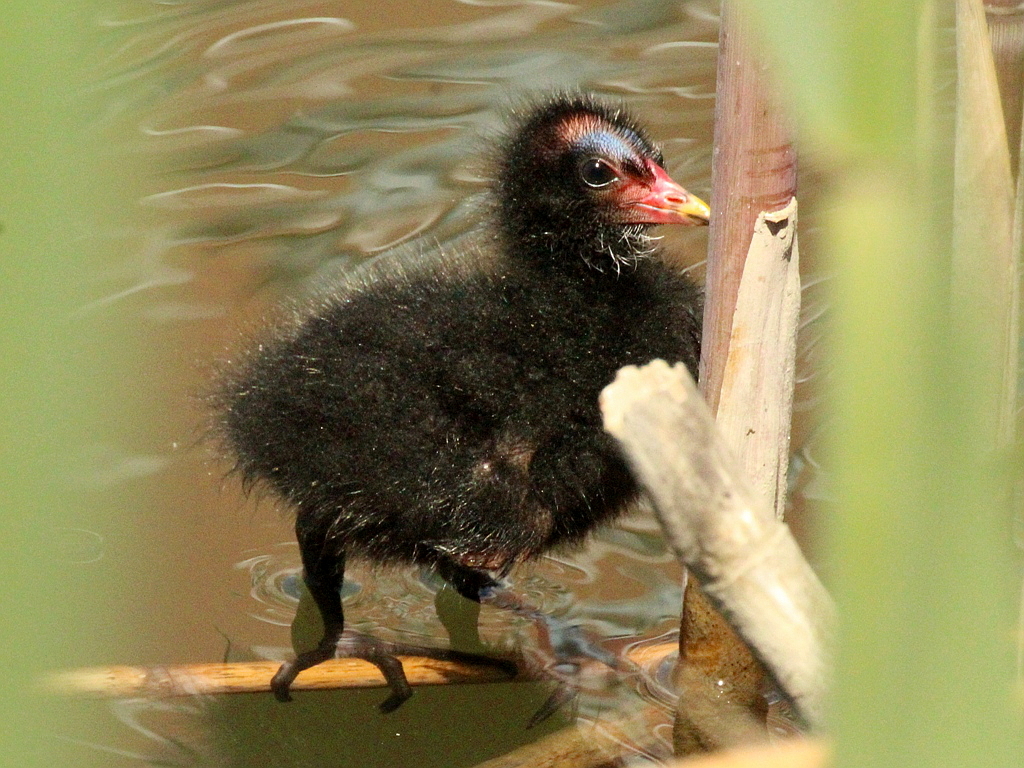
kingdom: Animalia
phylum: Chordata
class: Aves
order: Gruiformes
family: Rallidae
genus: Gallinula
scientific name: Gallinula chloropus
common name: Common moorhen
